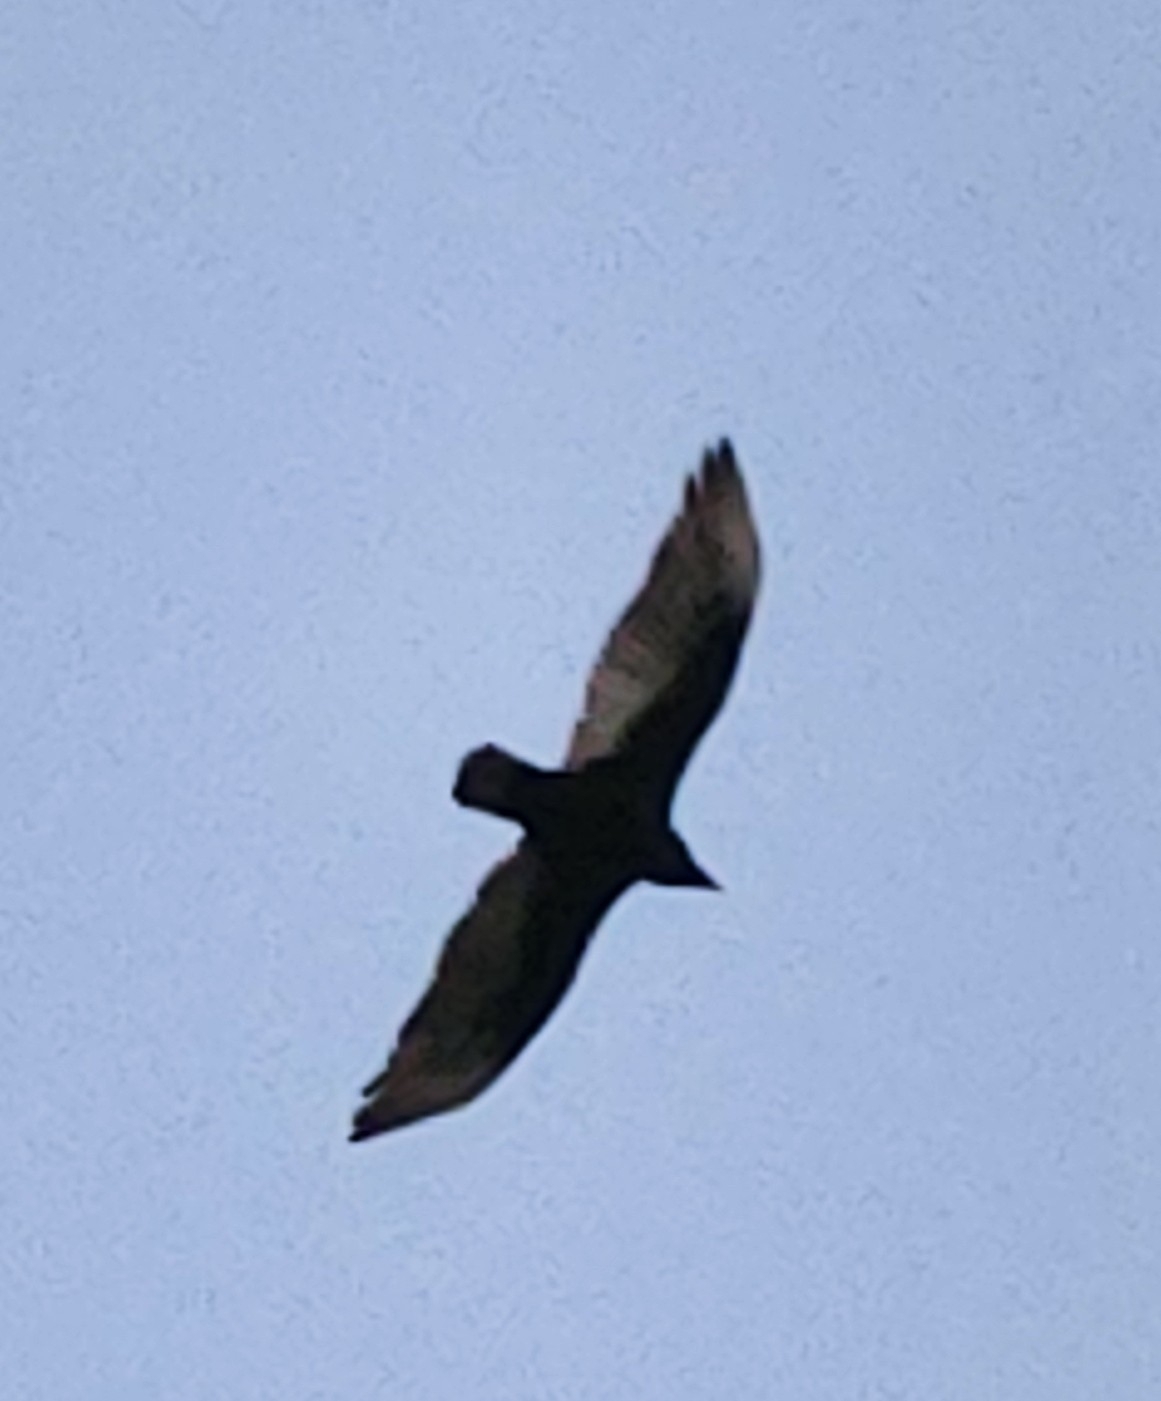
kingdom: Animalia
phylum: Chordata
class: Aves
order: Accipitriformes
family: Cathartidae
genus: Cathartes
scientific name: Cathartes aura
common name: Turkey vulture
